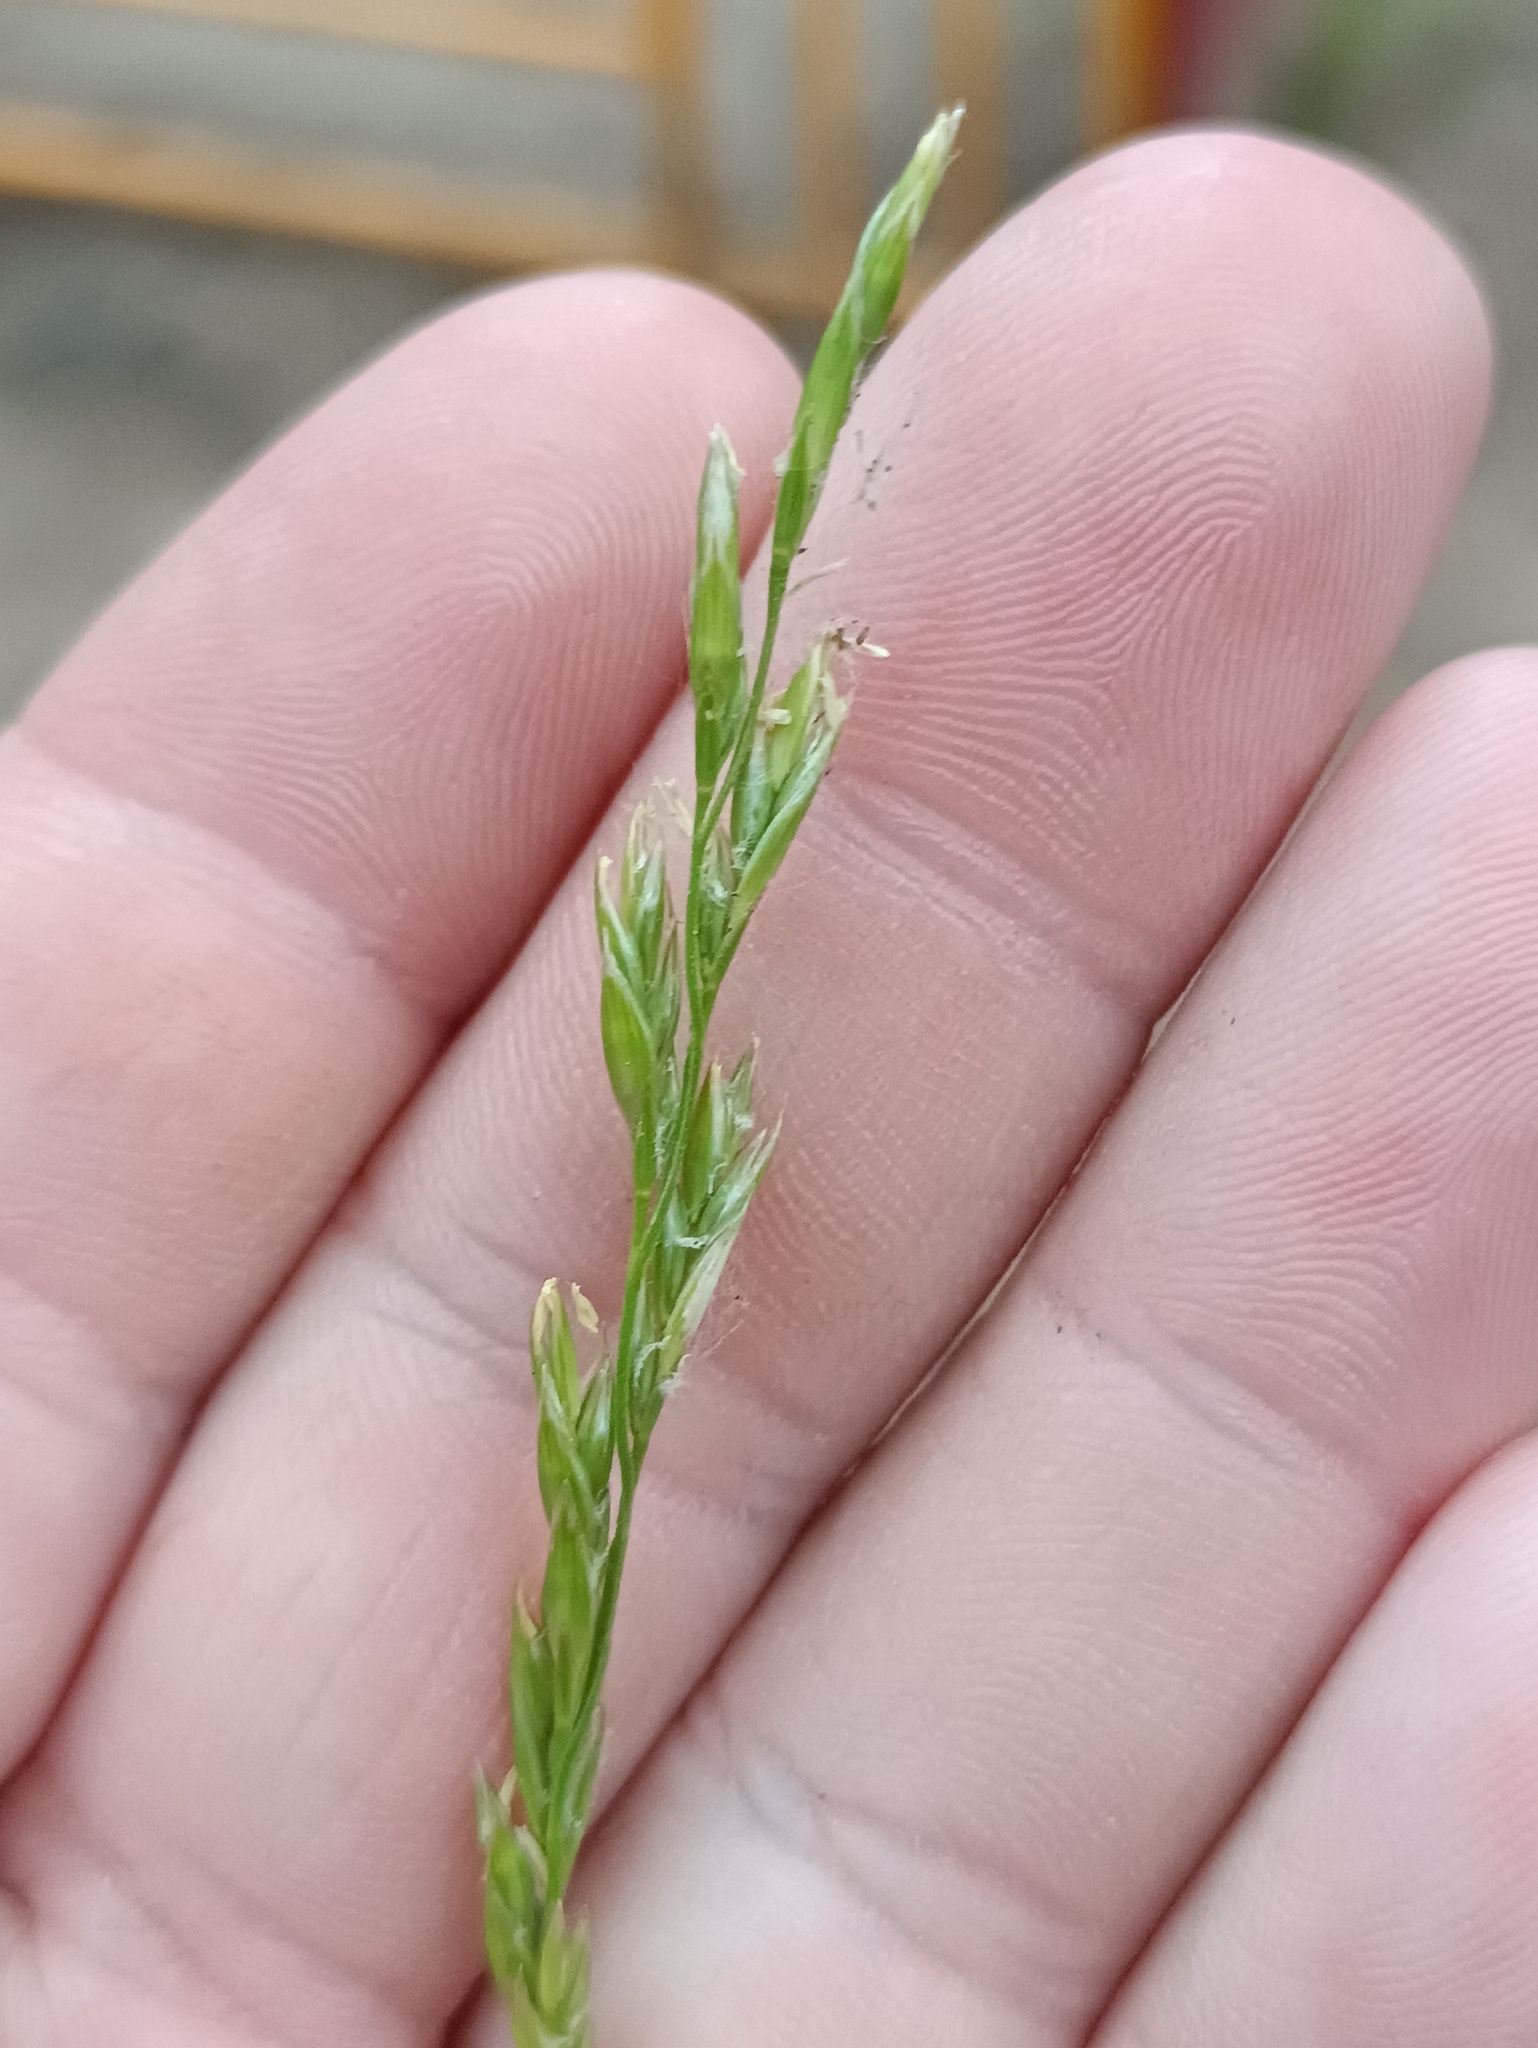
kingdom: Plantae
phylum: Tracheophyta
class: Liliopsida
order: Poales
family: Poaceae
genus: Lolium
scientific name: Lolium pratense
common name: Dover grass
